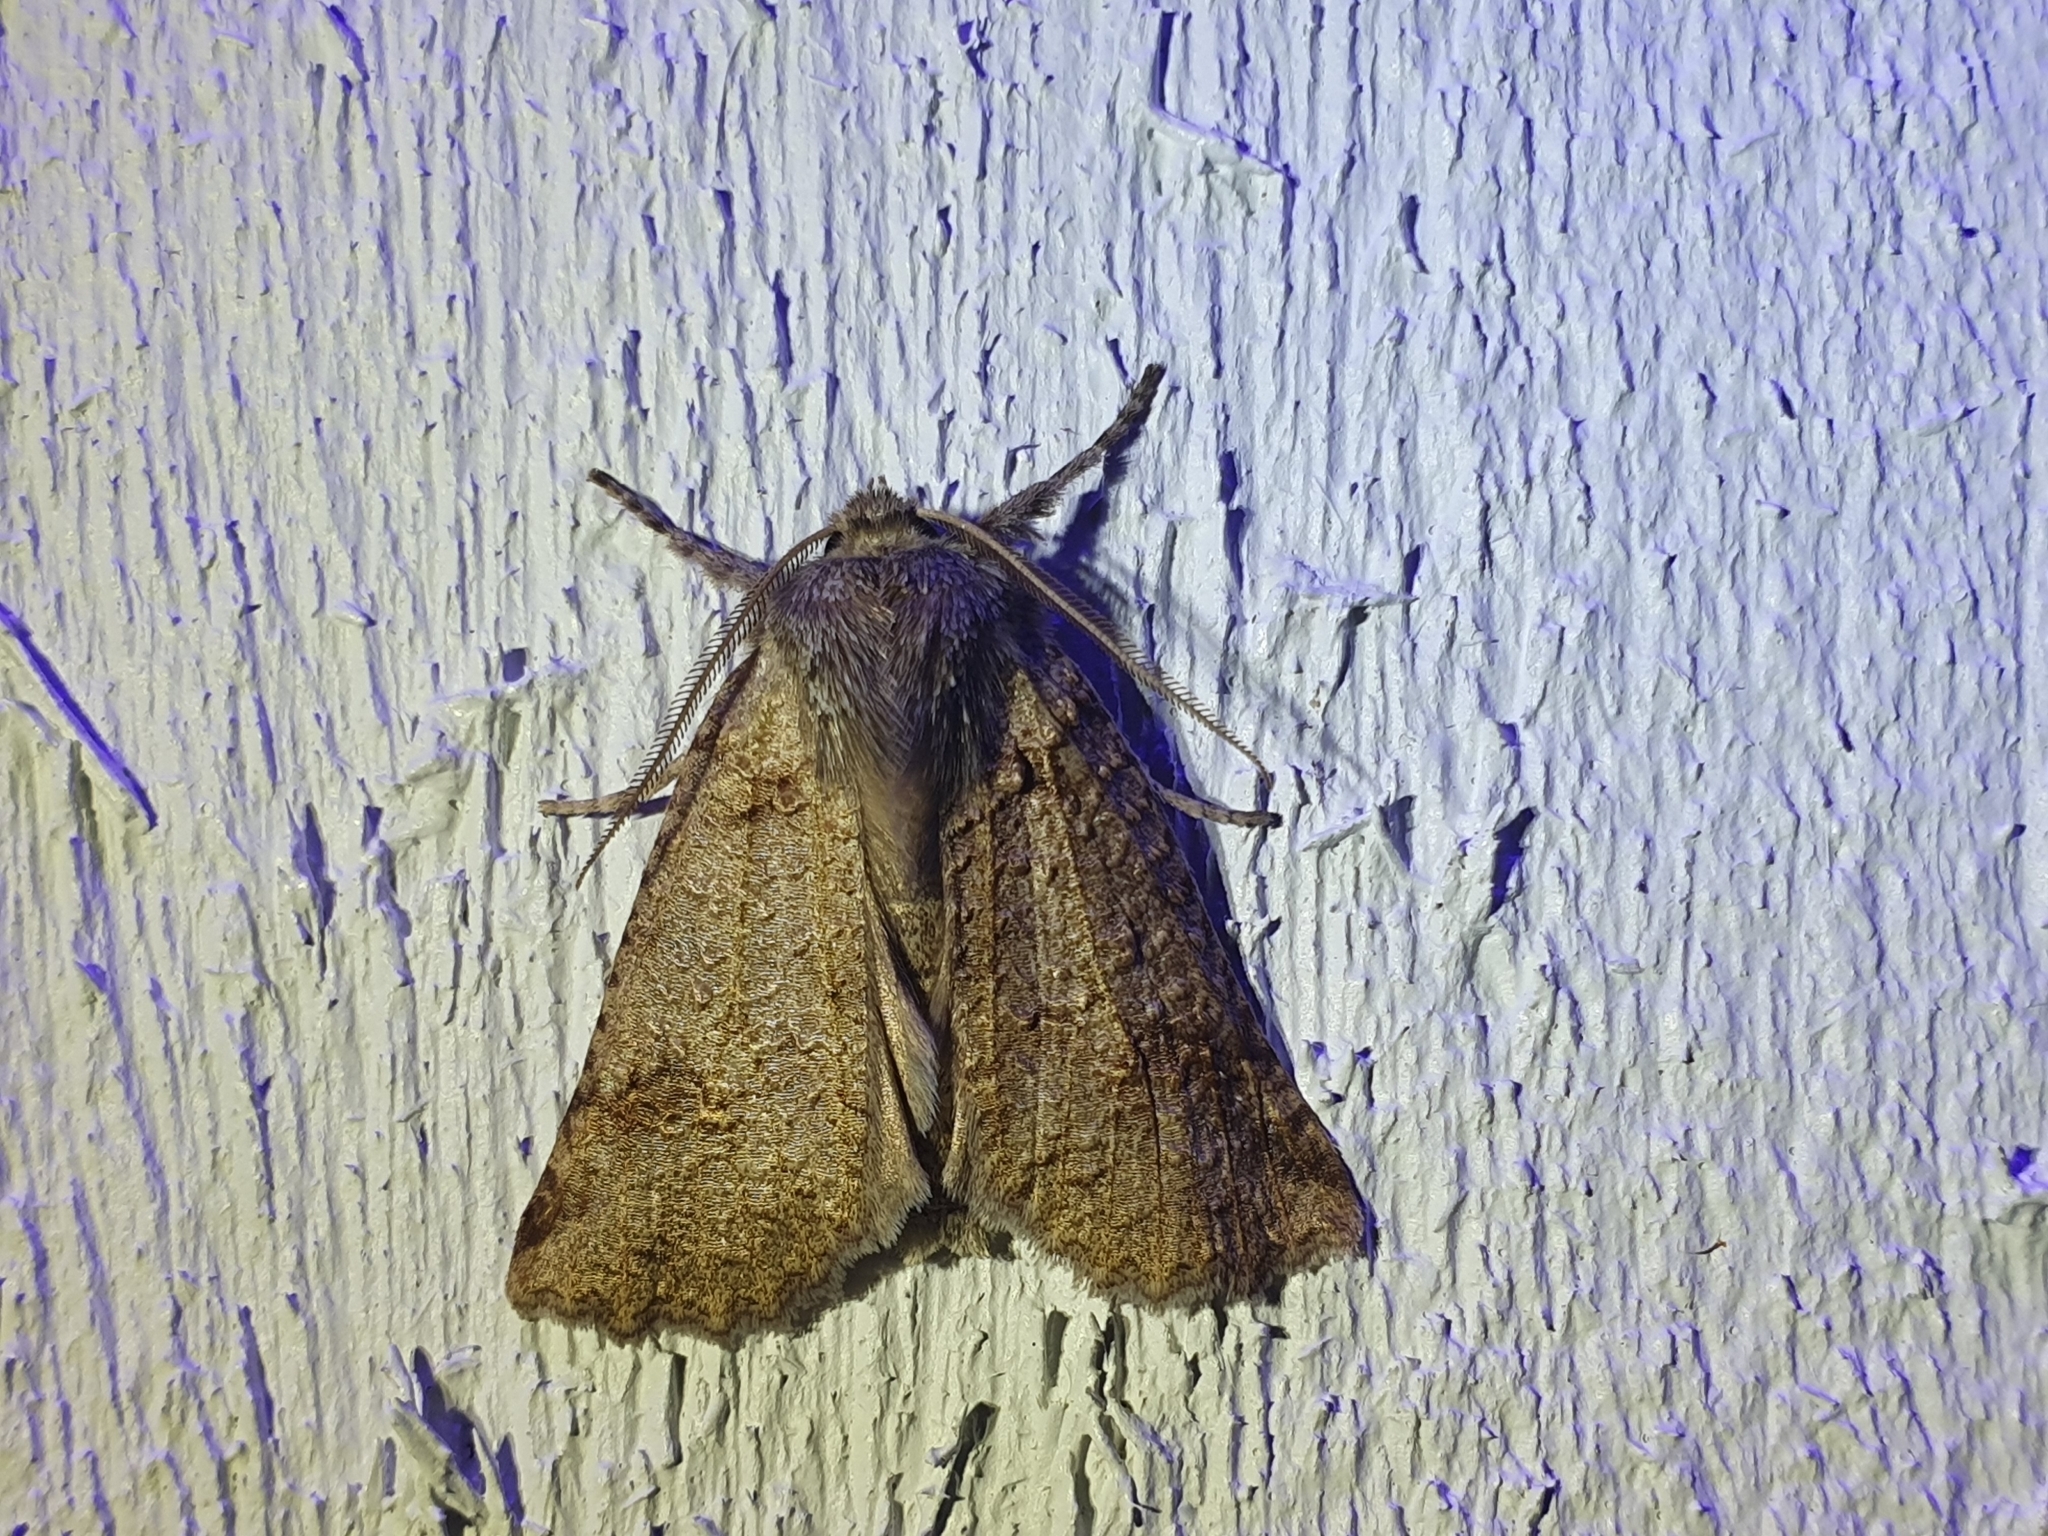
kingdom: Animalia
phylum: Arthropoda
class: Insecta
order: Lepidoptera
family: Geometridae
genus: Declana
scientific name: Declana floccosa
